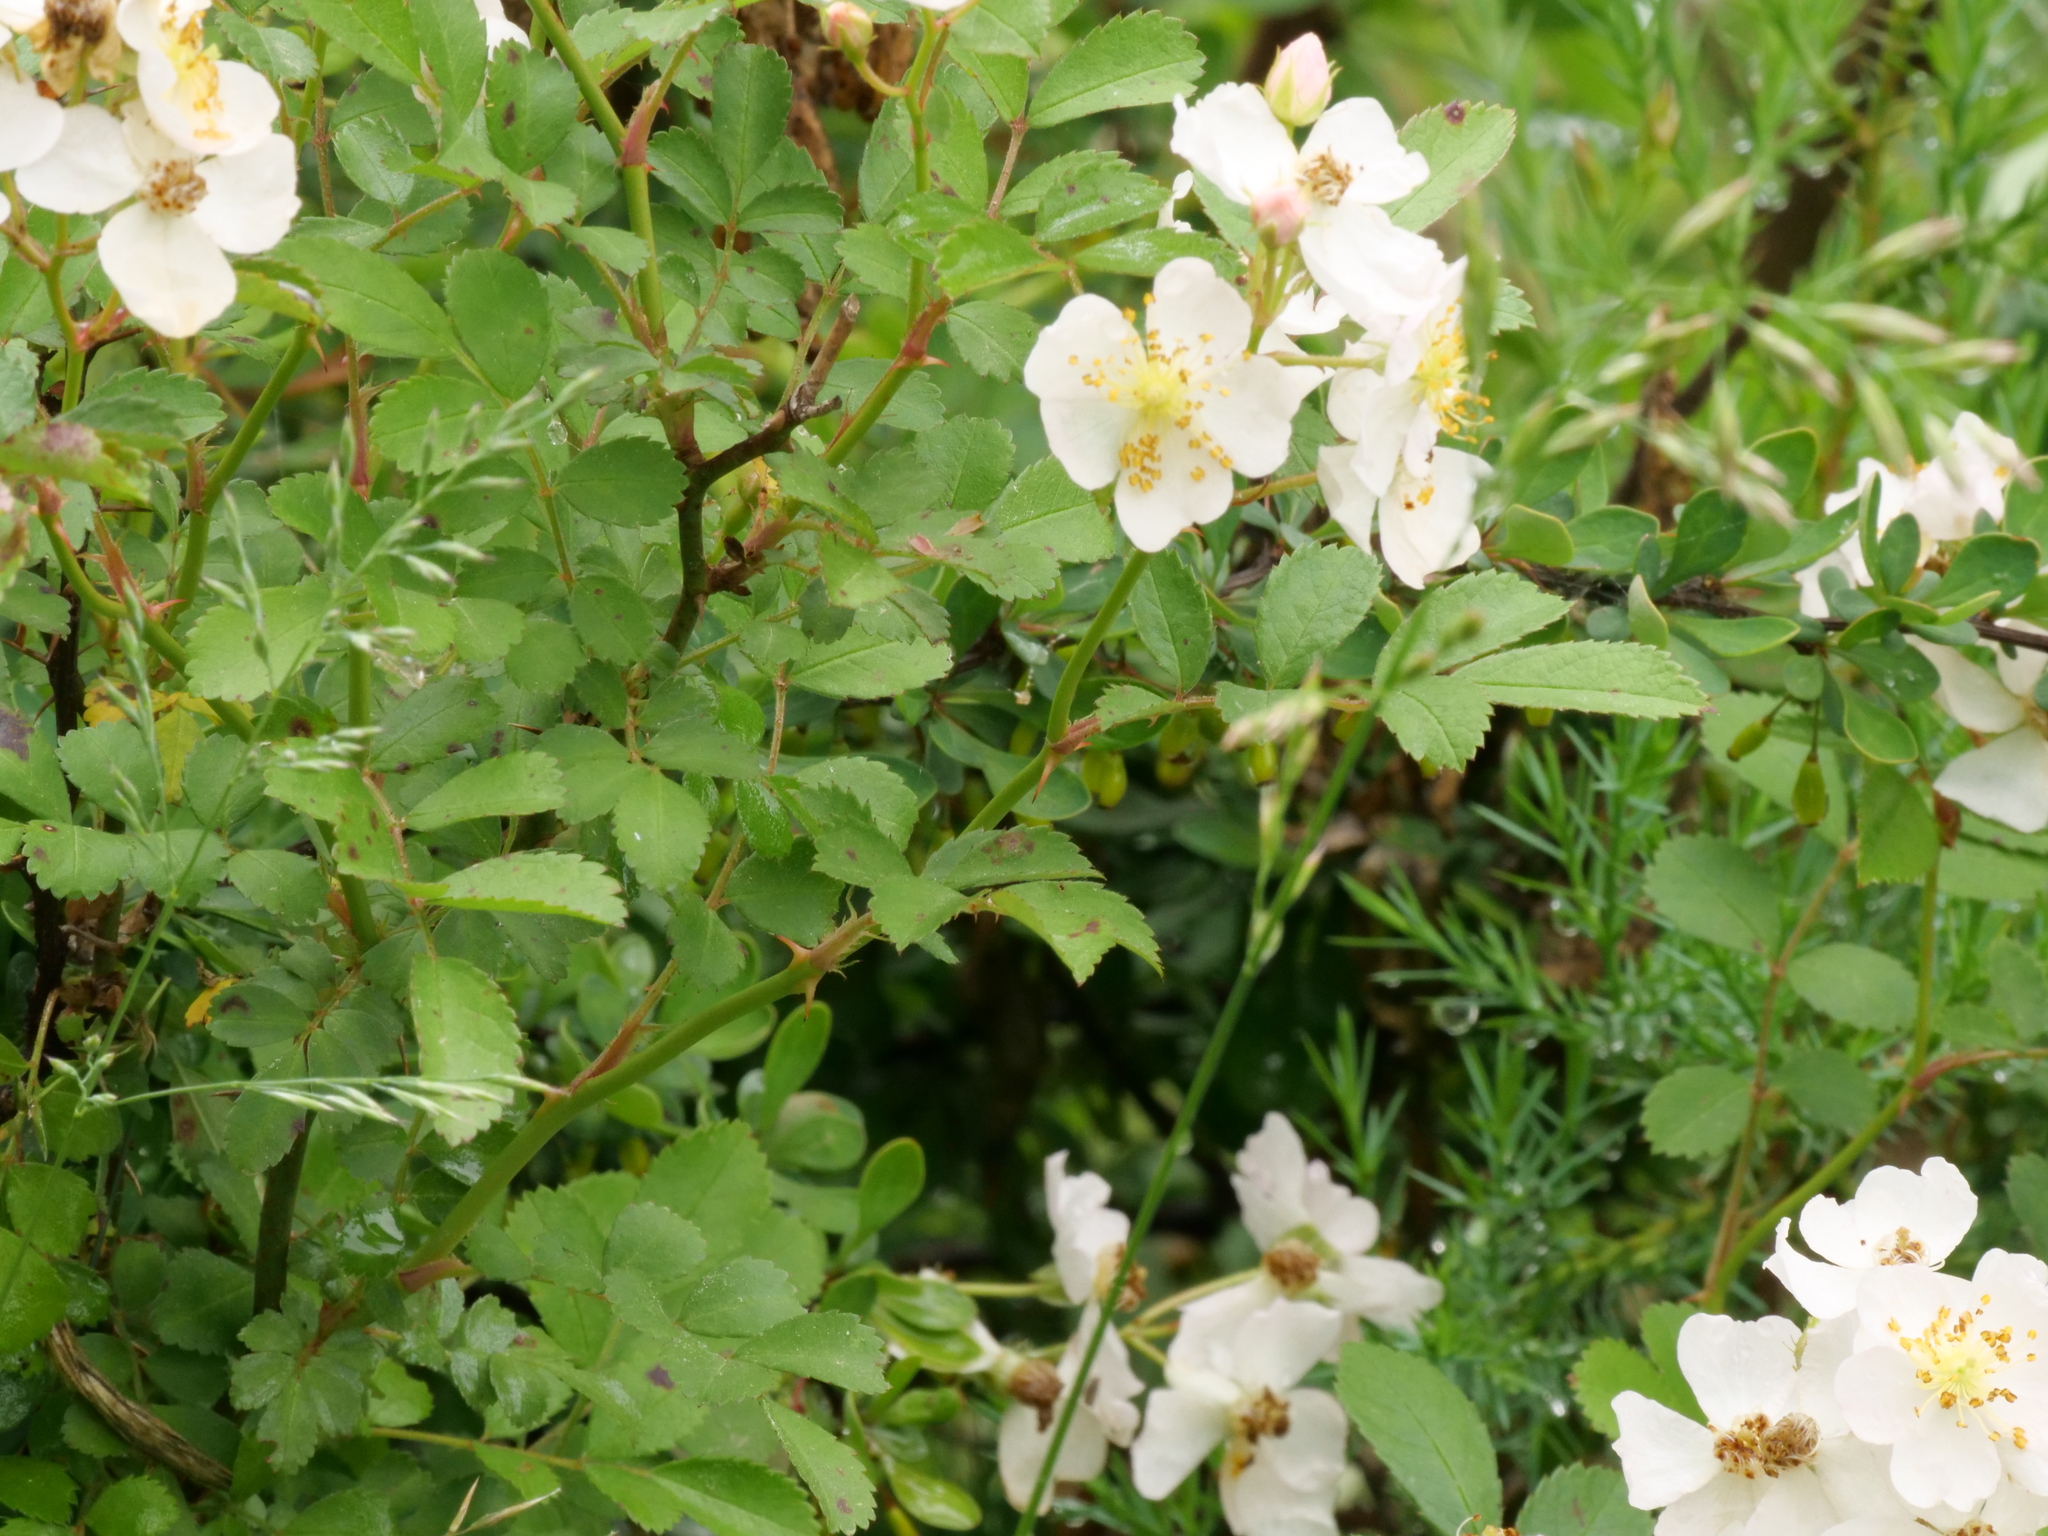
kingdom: Plantae
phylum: Tracheophyta
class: Magnoliopsida
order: Rosales
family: Rosaceae
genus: Rosa
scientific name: Rosa multiflora
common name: Multiflora rose
